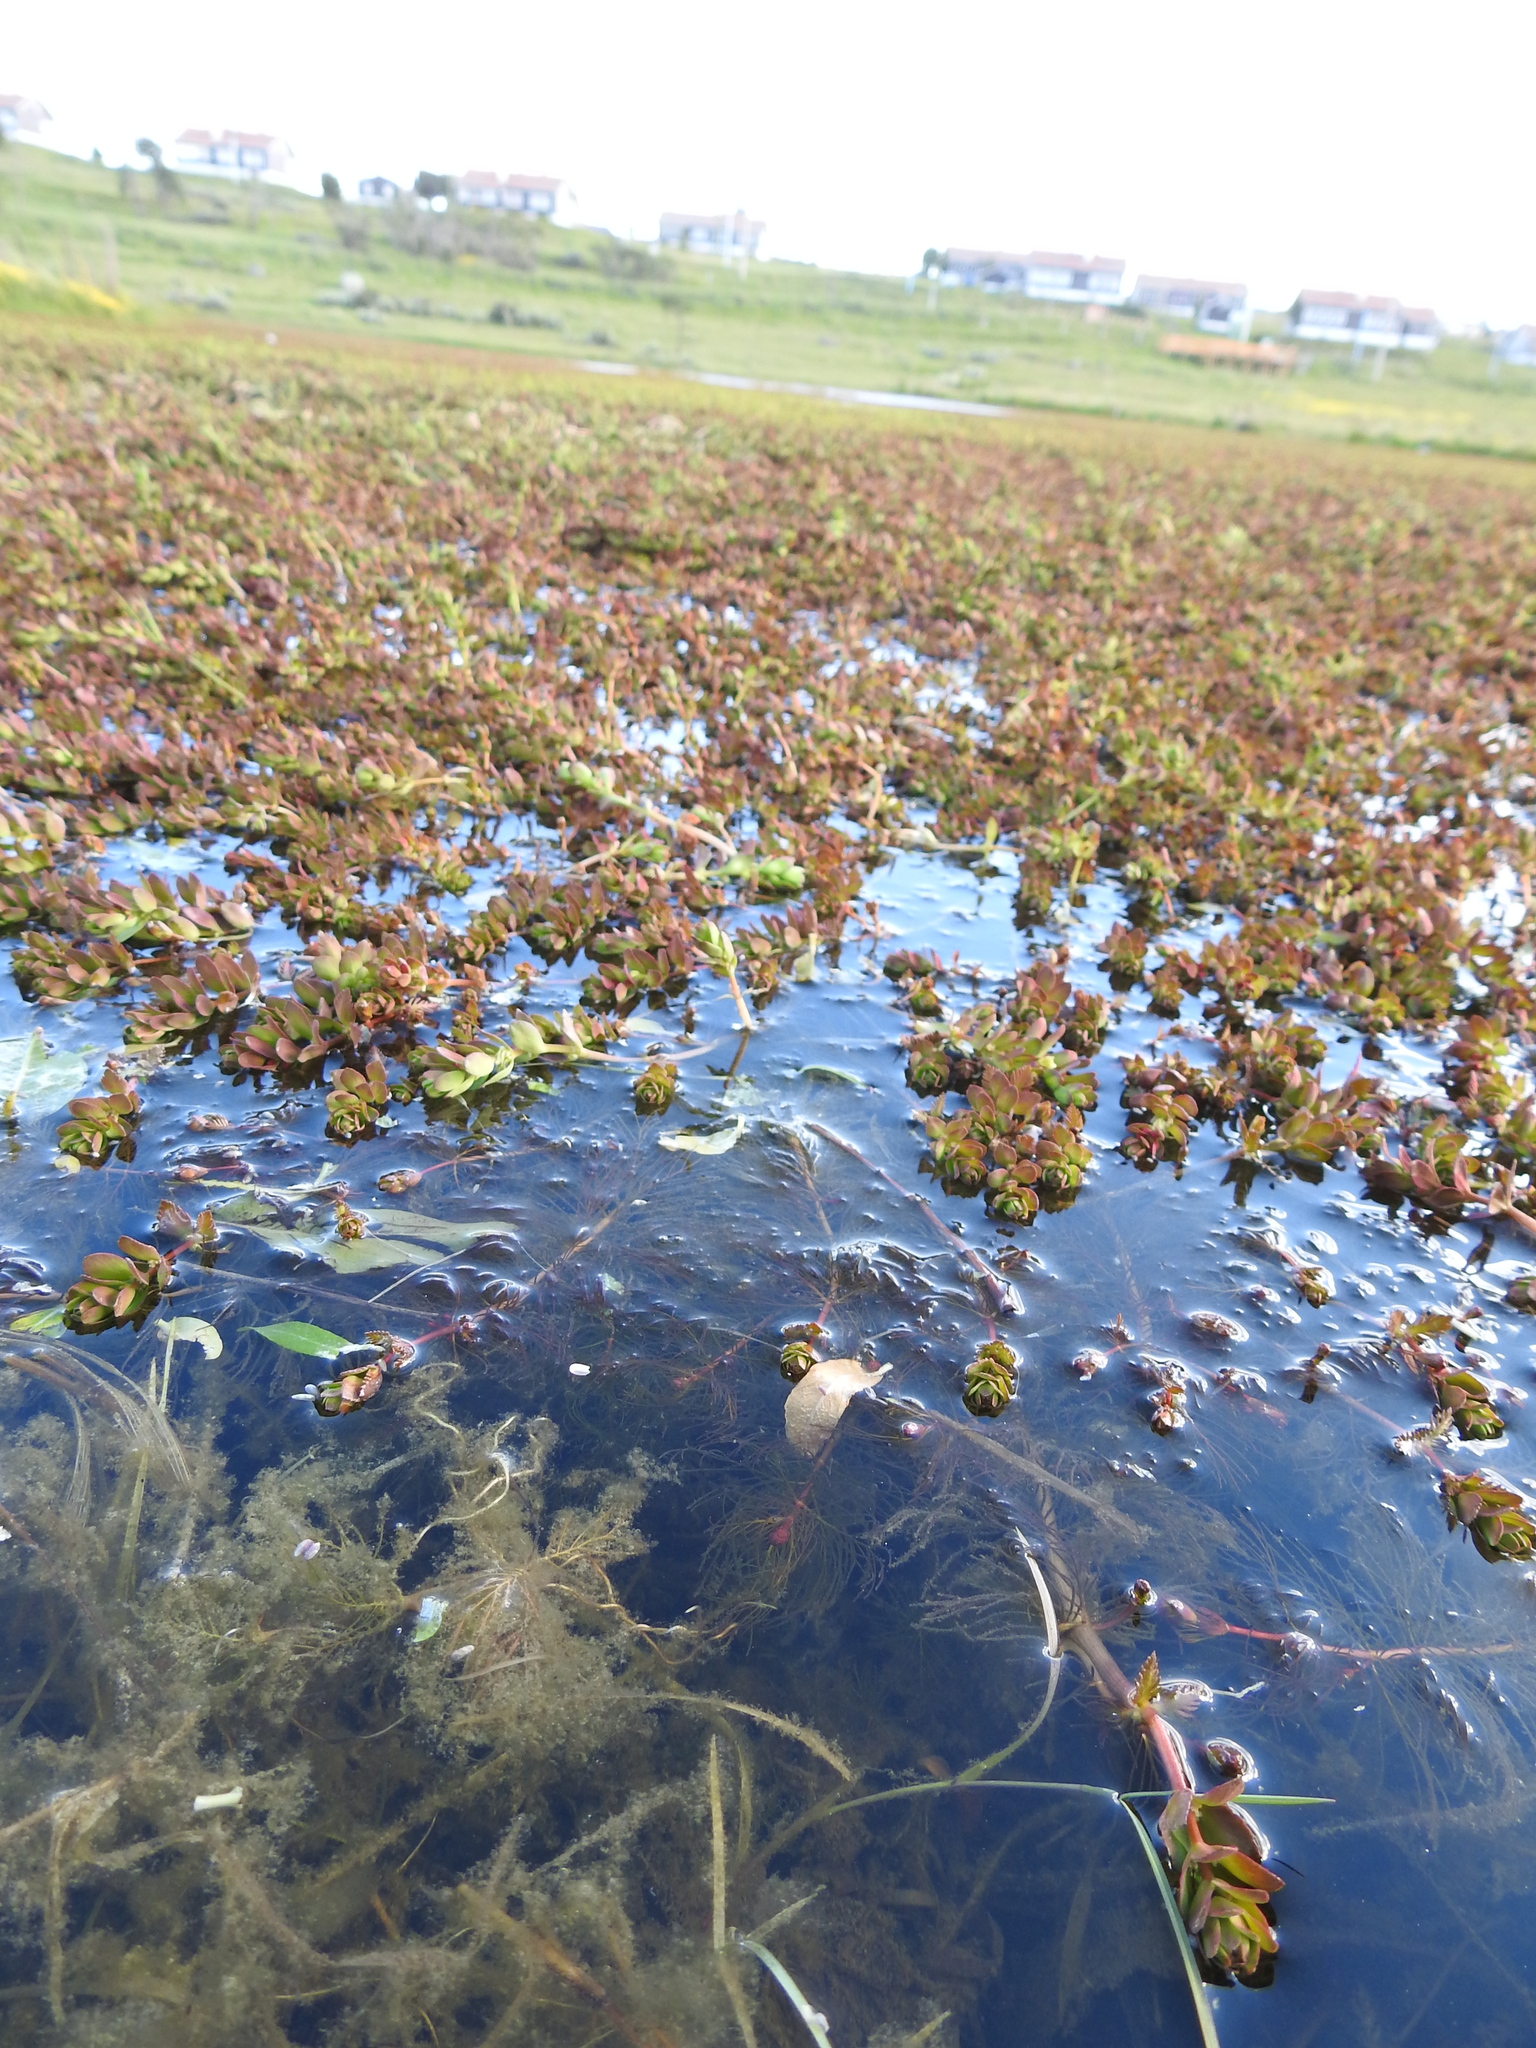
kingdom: Plantae
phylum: Tracheophyta
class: Magnoliopsida
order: Saxifragales
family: Haloragaceae
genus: Myriophyllum
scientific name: Myriophyllum quitense
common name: Andean water milfoil
